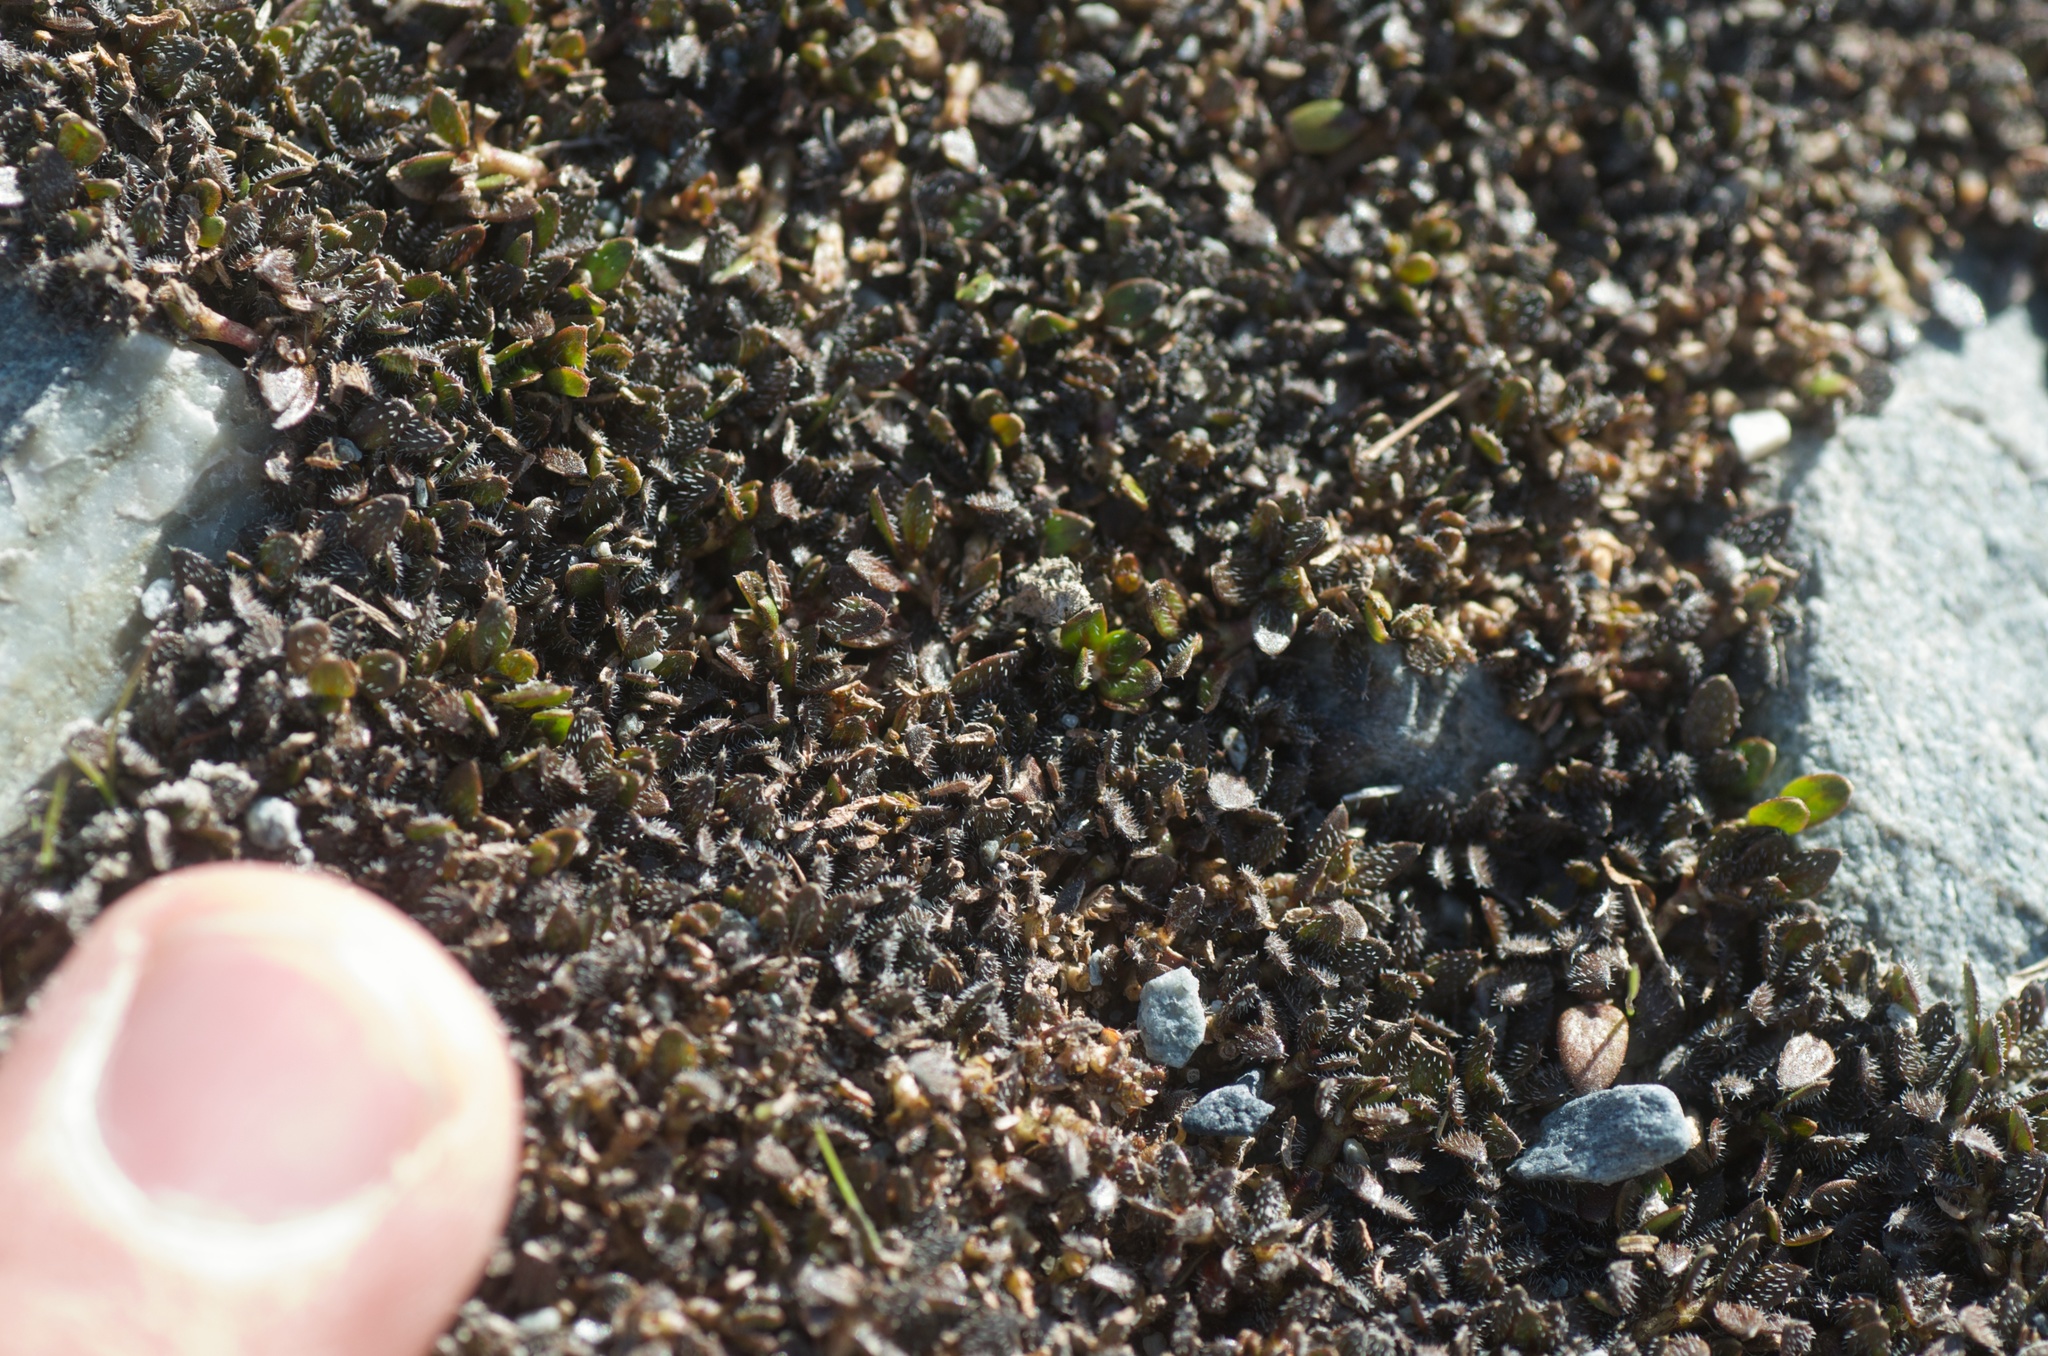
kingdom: Plantae
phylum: Tracheophyta
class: Magnoliopsida
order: Gentianales
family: Rubiaceae
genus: Coprosma
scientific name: Coprosma atropurpurea
